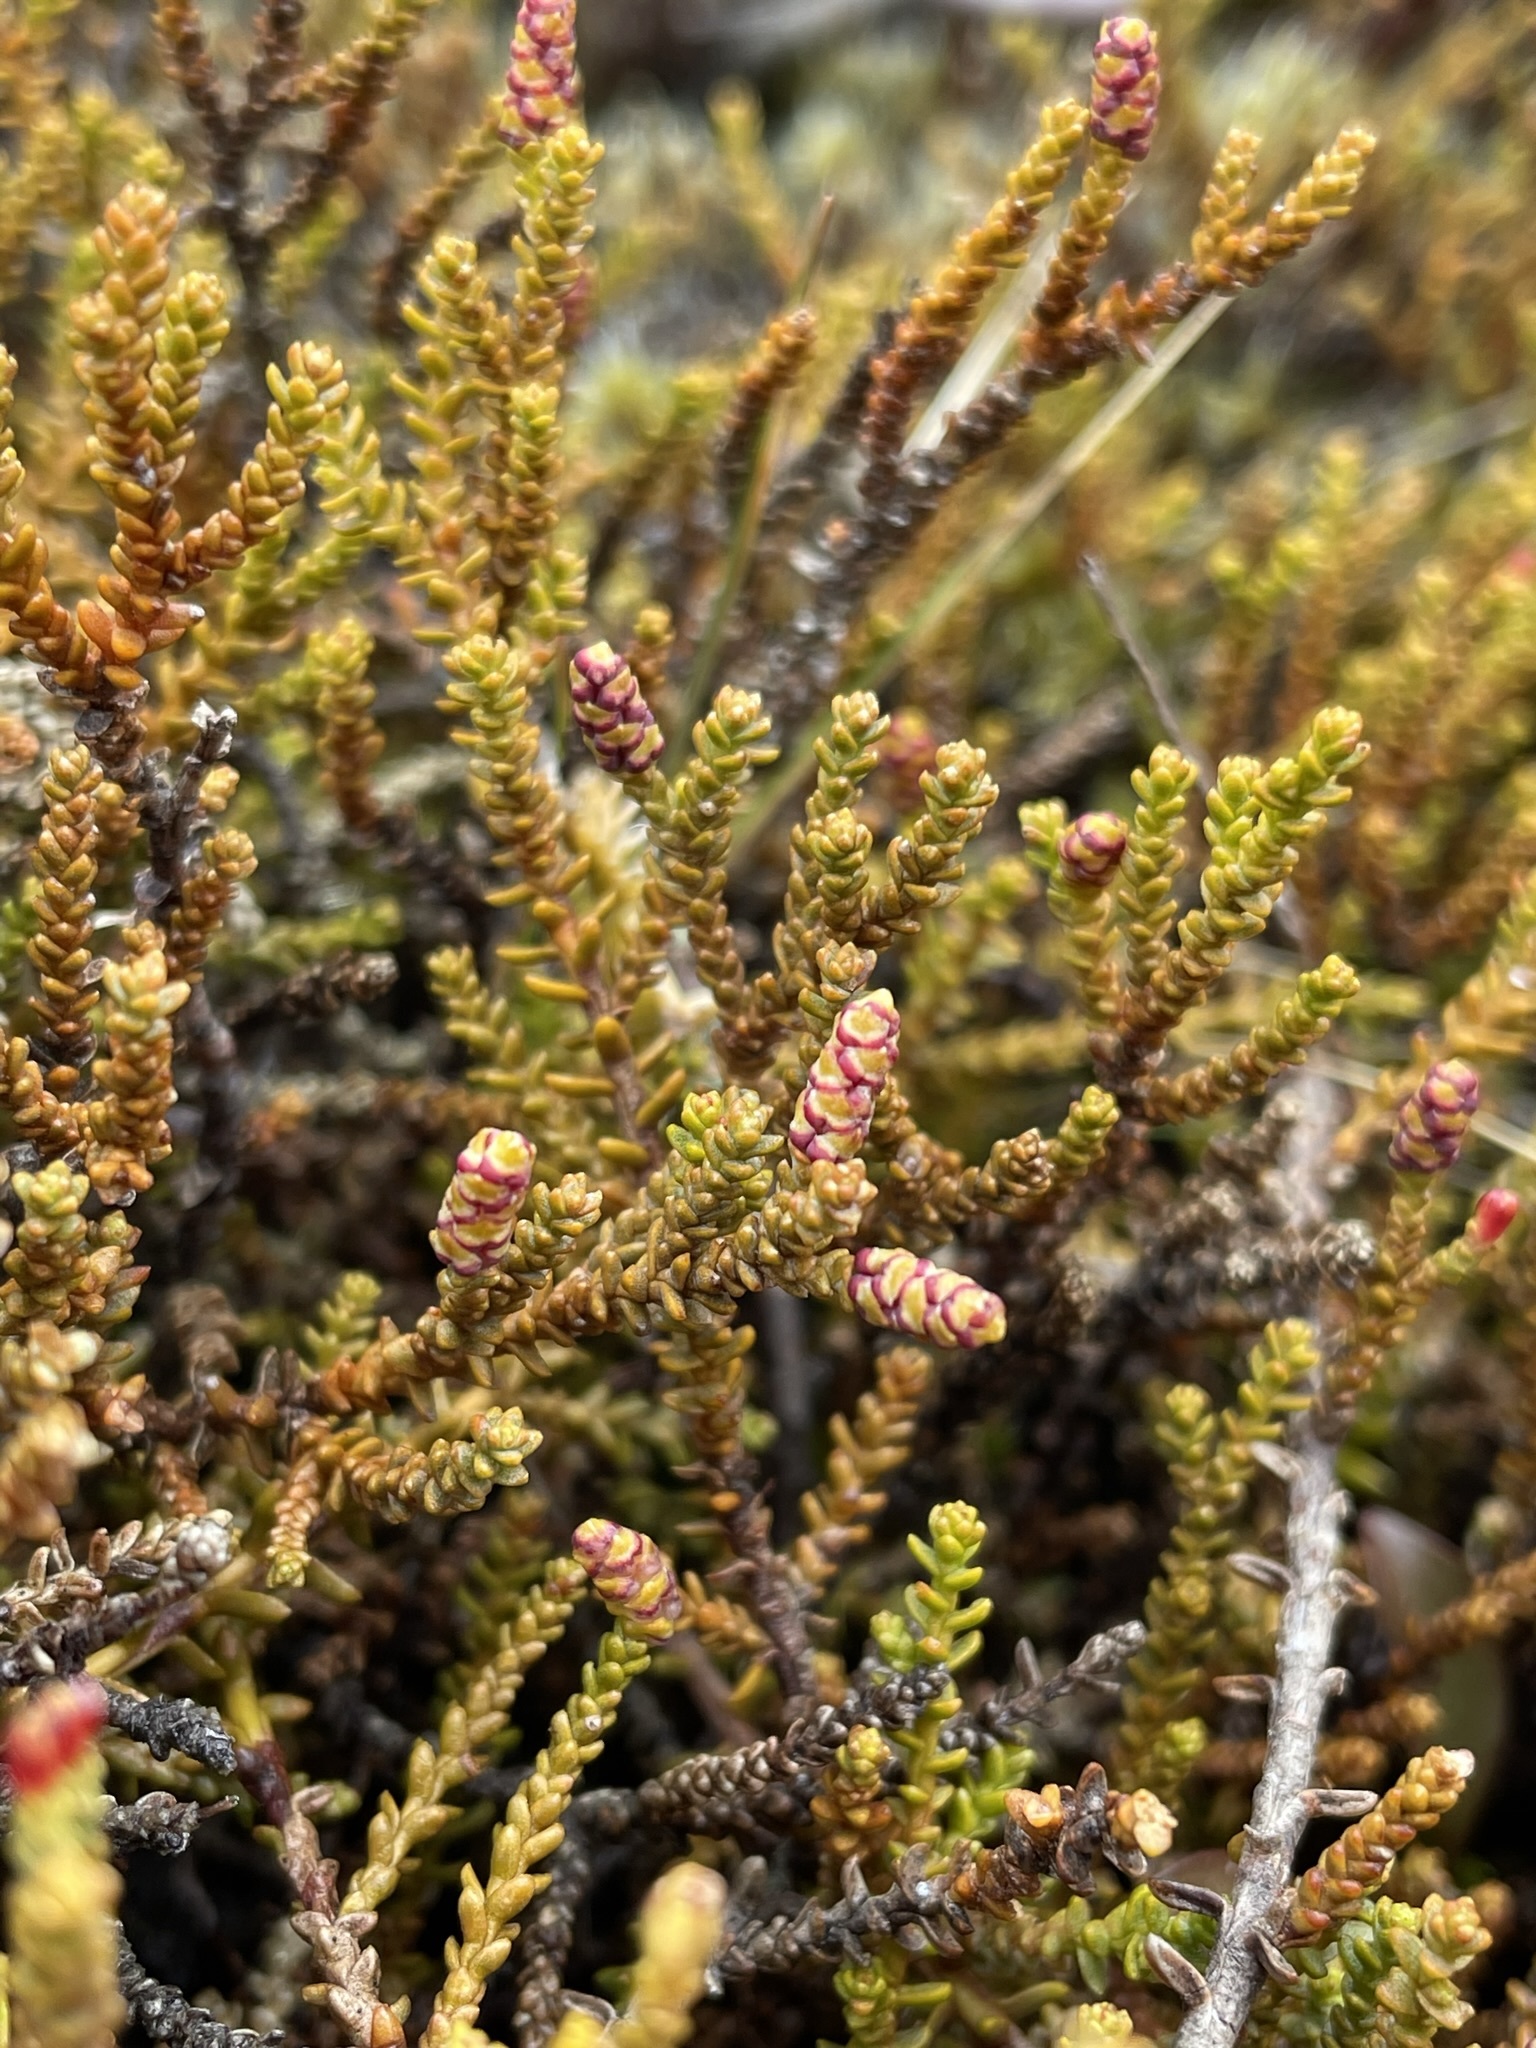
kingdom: Plantae
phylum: Tracheophyta
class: Pinopsida
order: Pinales
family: Podocarpaceae
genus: Lepidothamnus
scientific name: Lepidothamnus laxifolius
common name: Pygmy pine
